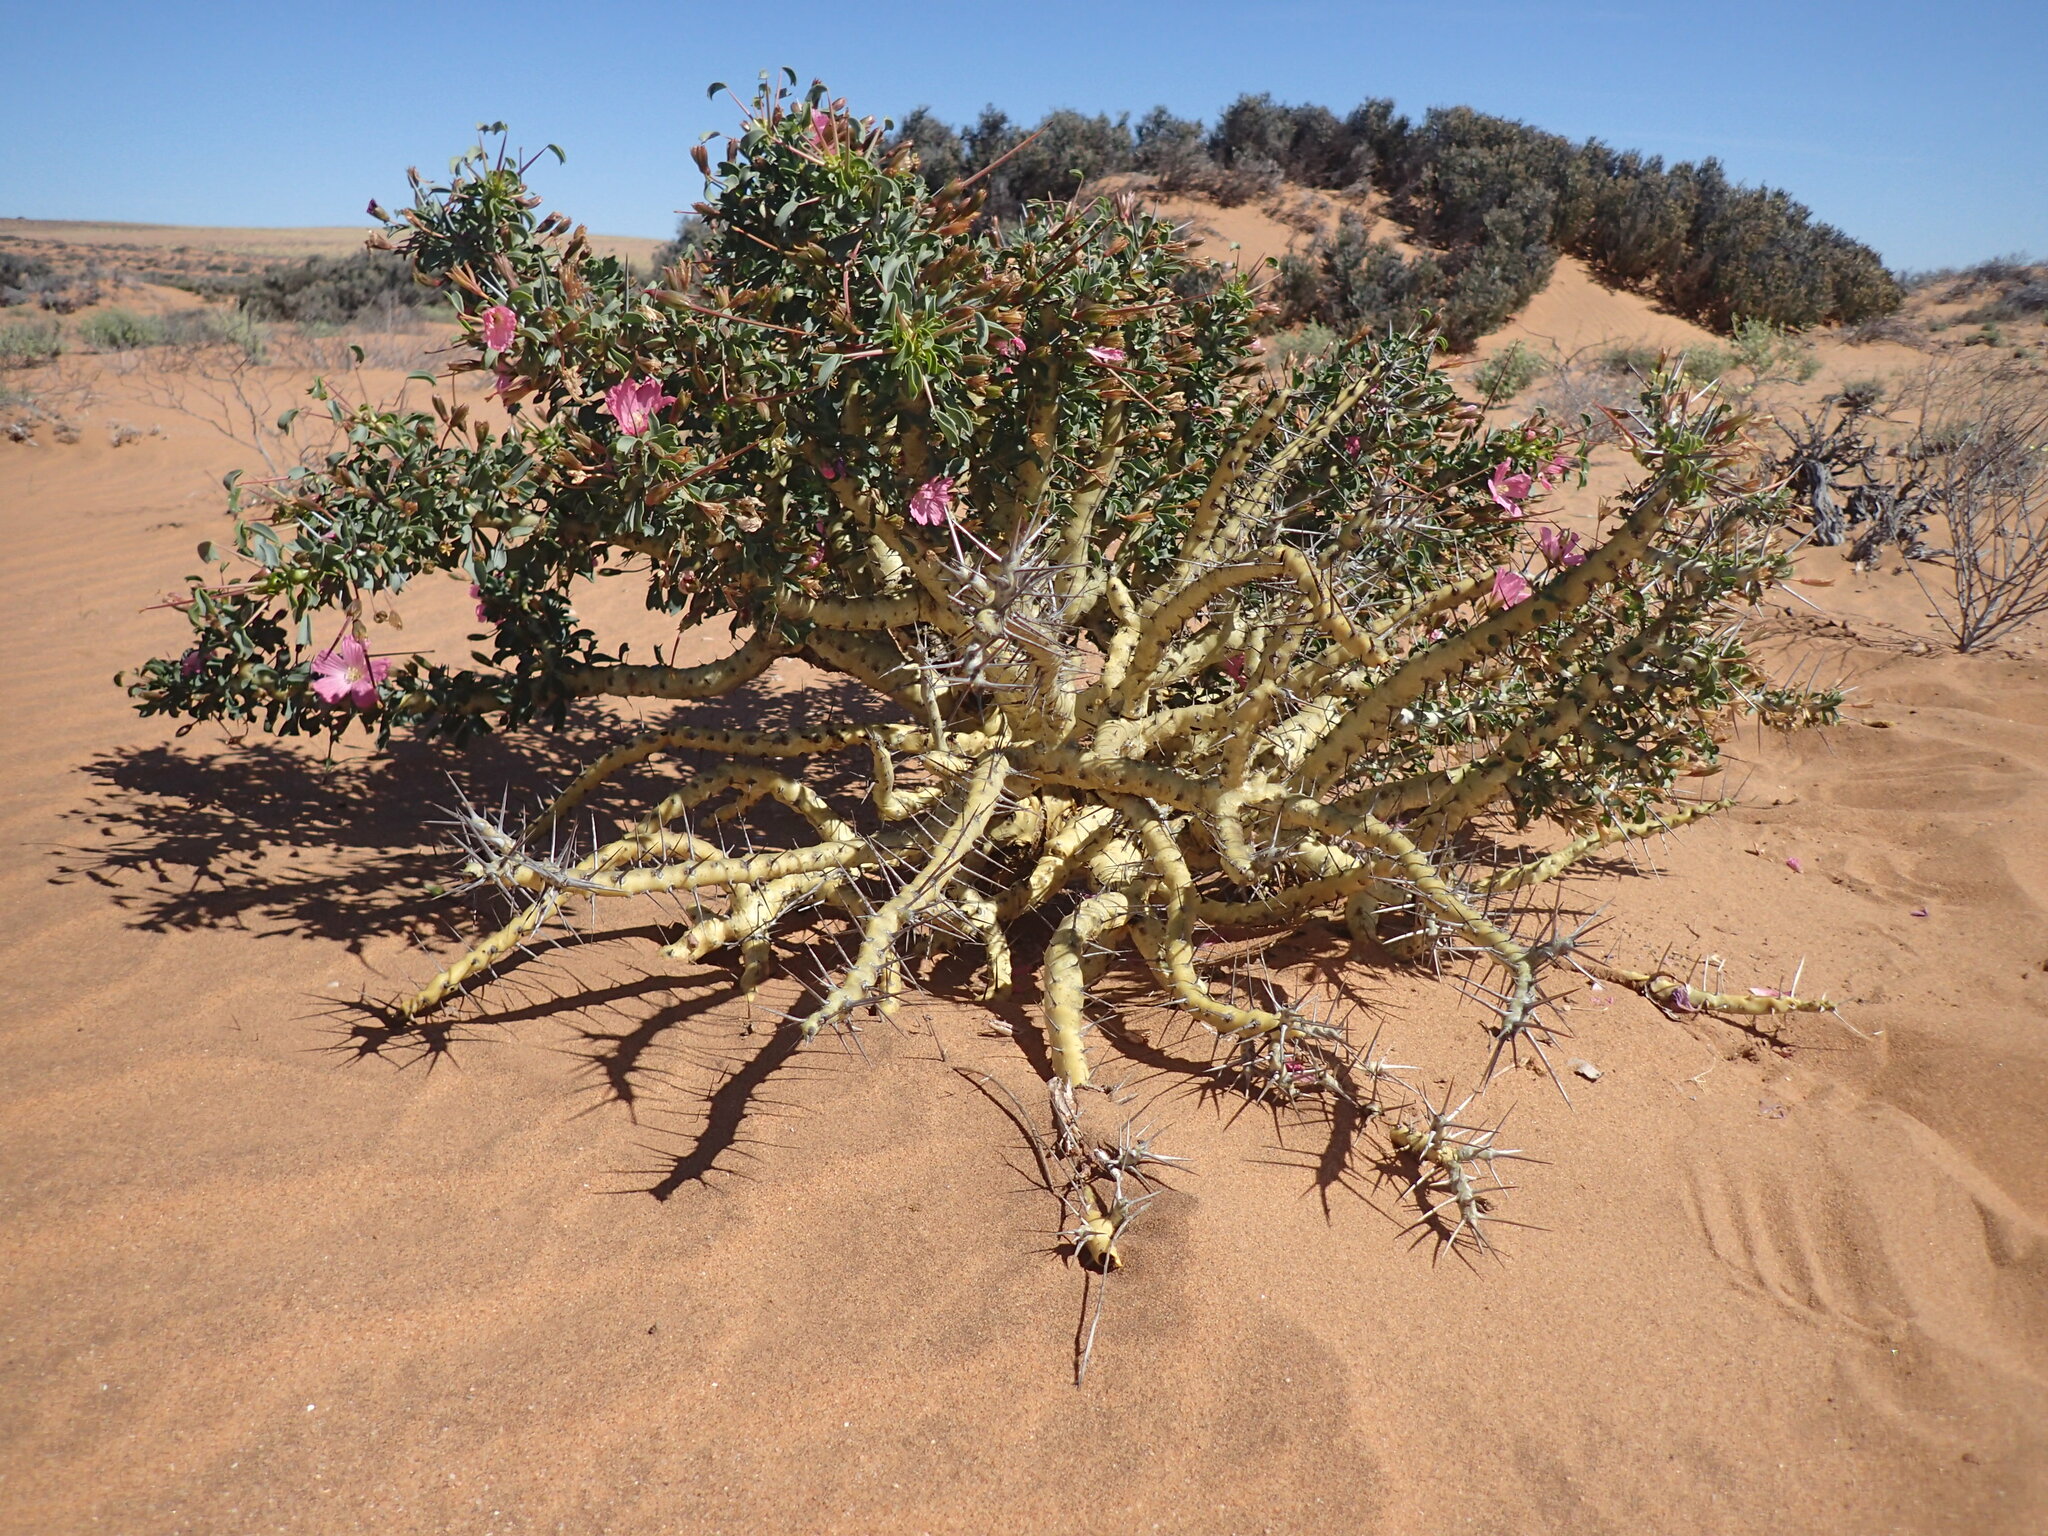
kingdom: Plantae
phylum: Tracheophyta
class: Magnoliopsida
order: Geraniales
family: Geraniaceae
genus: Monsonia
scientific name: Monsonia patersonii
